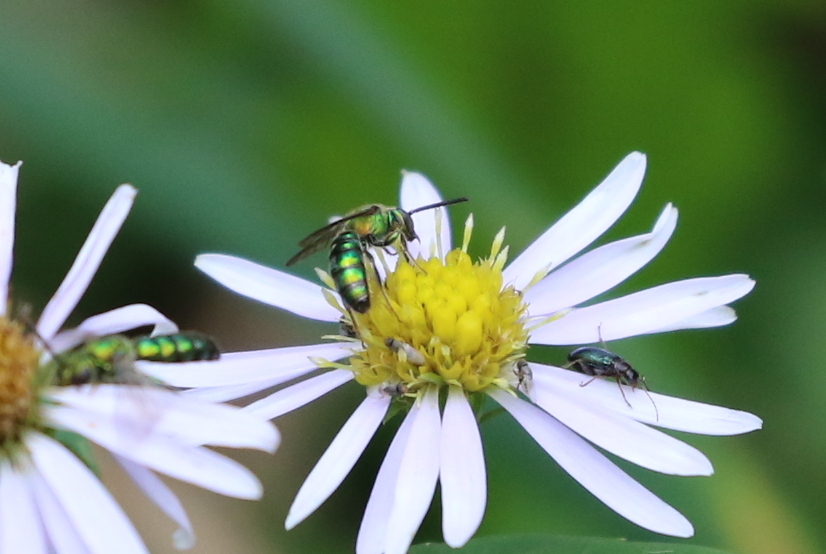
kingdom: Animalia
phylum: Arthropoda
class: Insecta
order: Hymenoptera
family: Halictidae
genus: Augochlora
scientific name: Augochlora pura
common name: Pure green sweat bee
